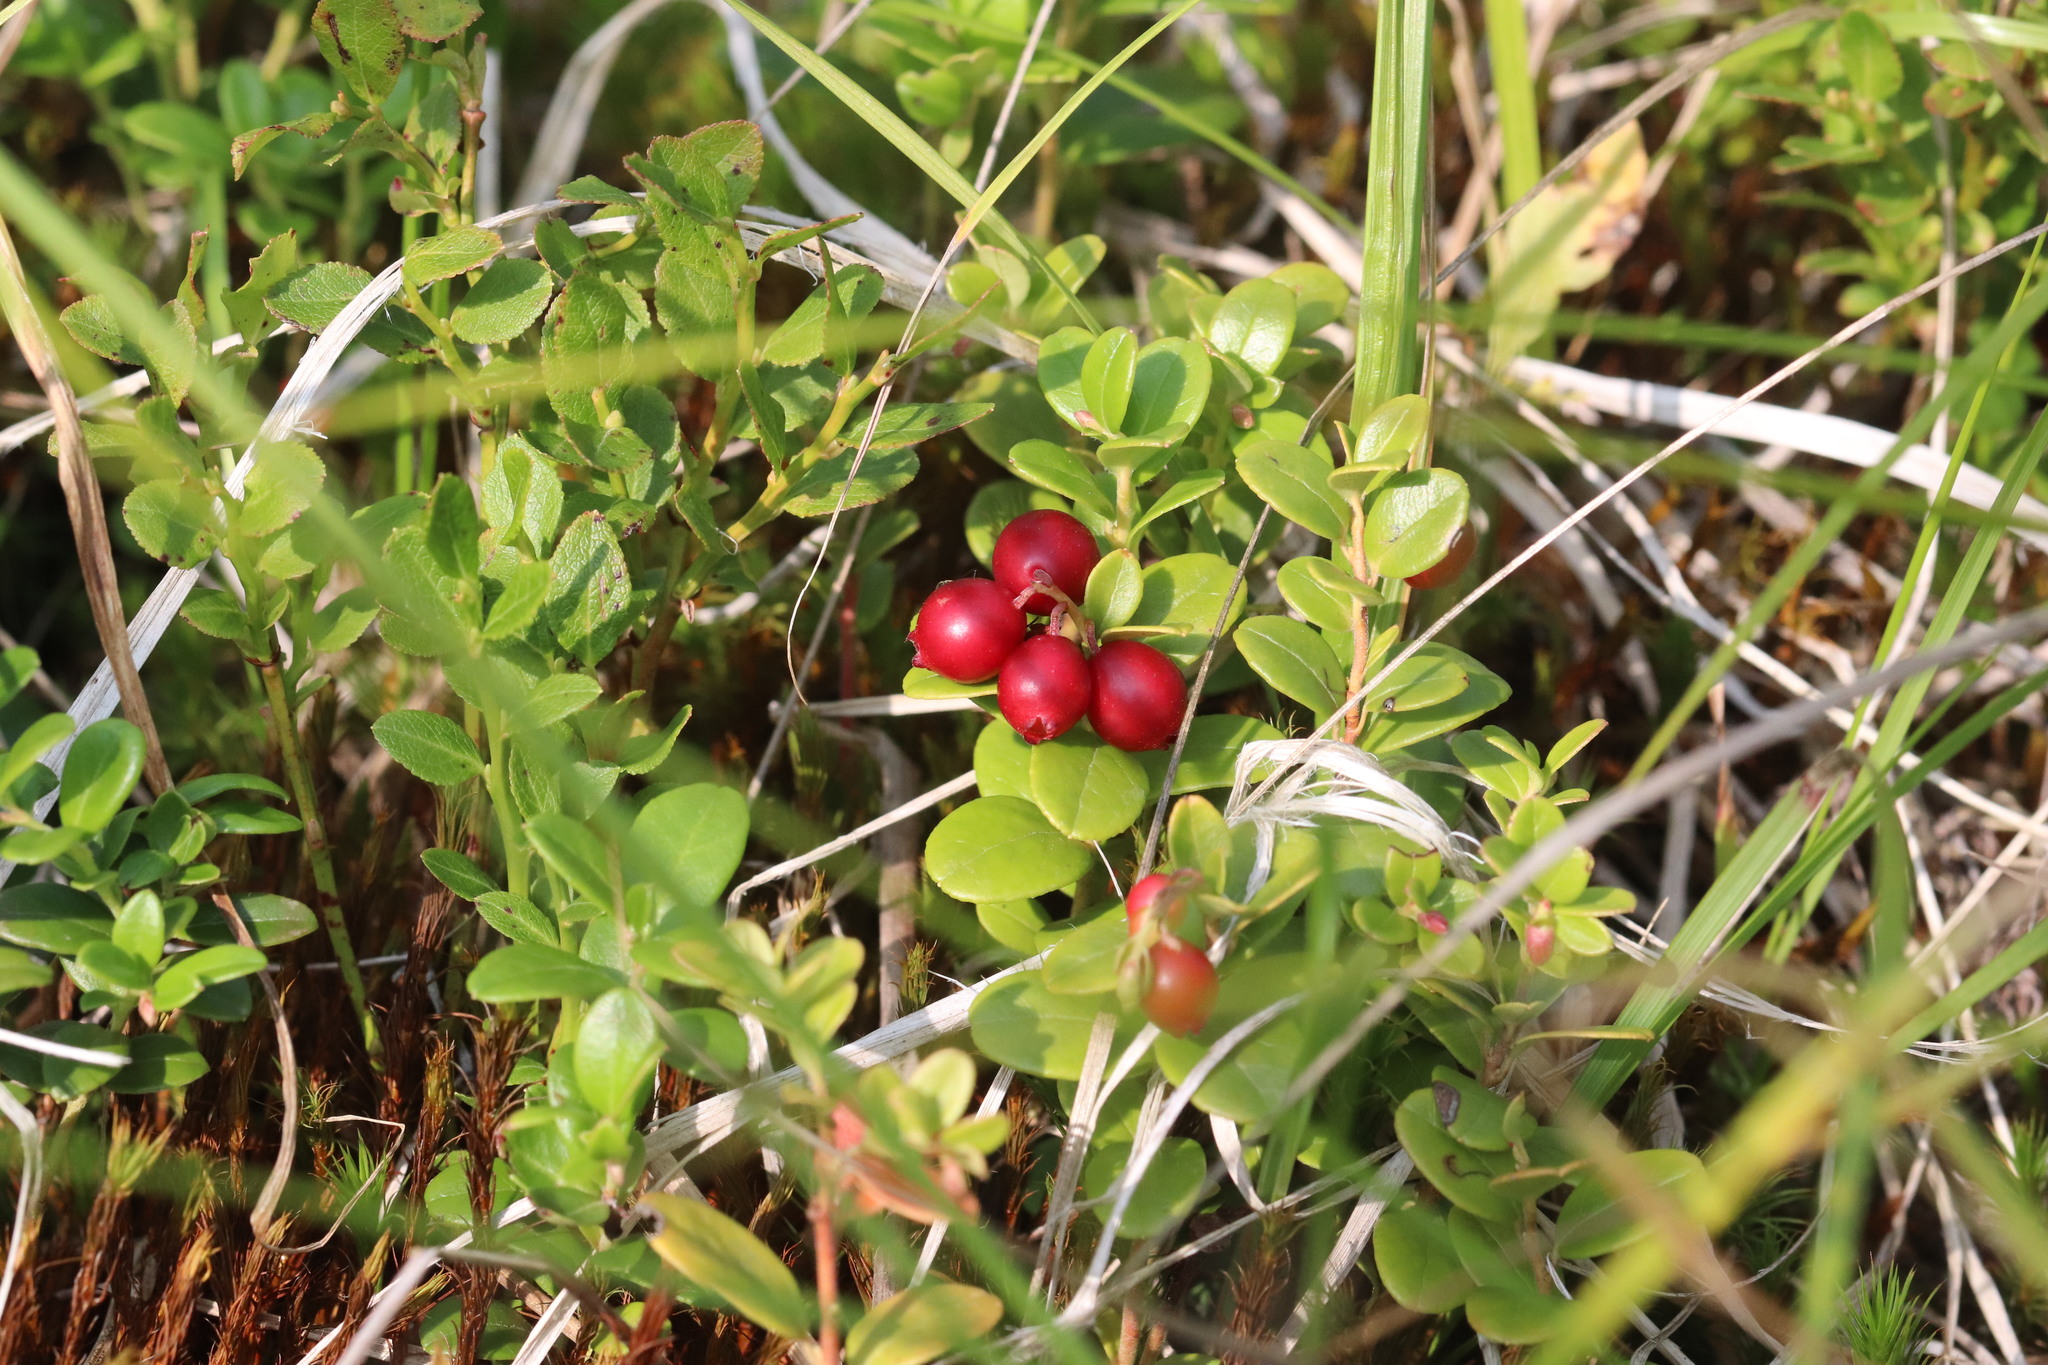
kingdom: Plantae
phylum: Tracheophyta
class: Magnoliopsida
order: Ericales
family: Ericaceae
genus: Vaccinium
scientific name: Vaccinium vitis-idaea
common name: Cowberry
